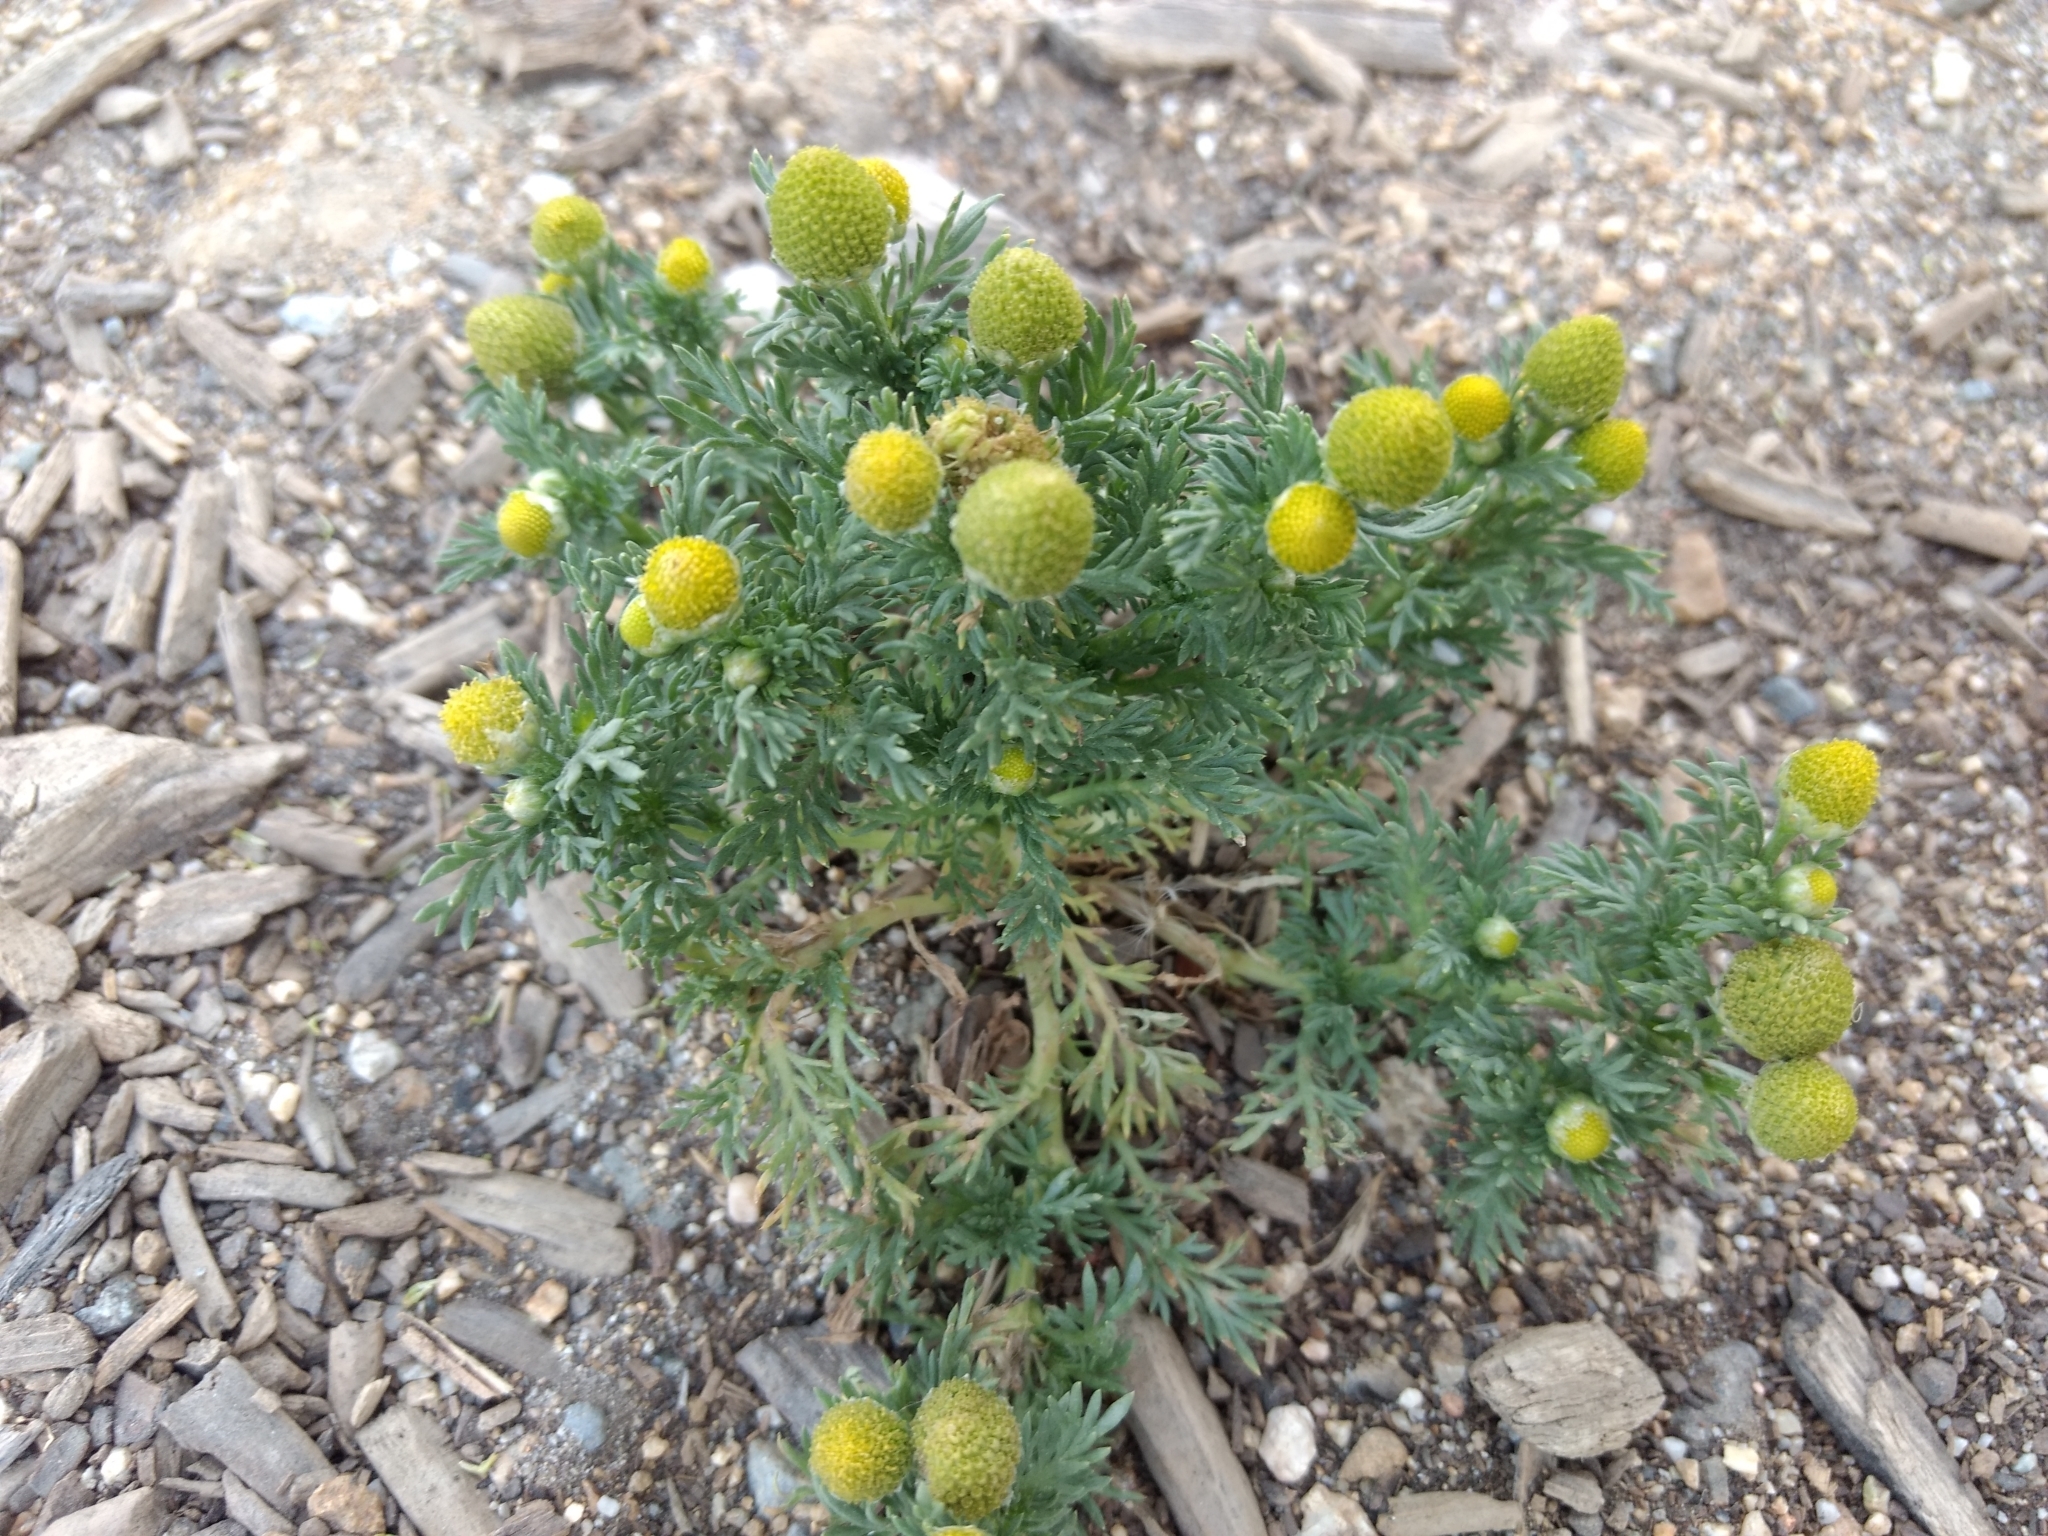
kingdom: Plantae
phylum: Tracheophyta
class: Magnoliopsida
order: Asterales
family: Asteraceae
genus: Matricaria
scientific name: Matricaria discoidea
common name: Disc mayweed
